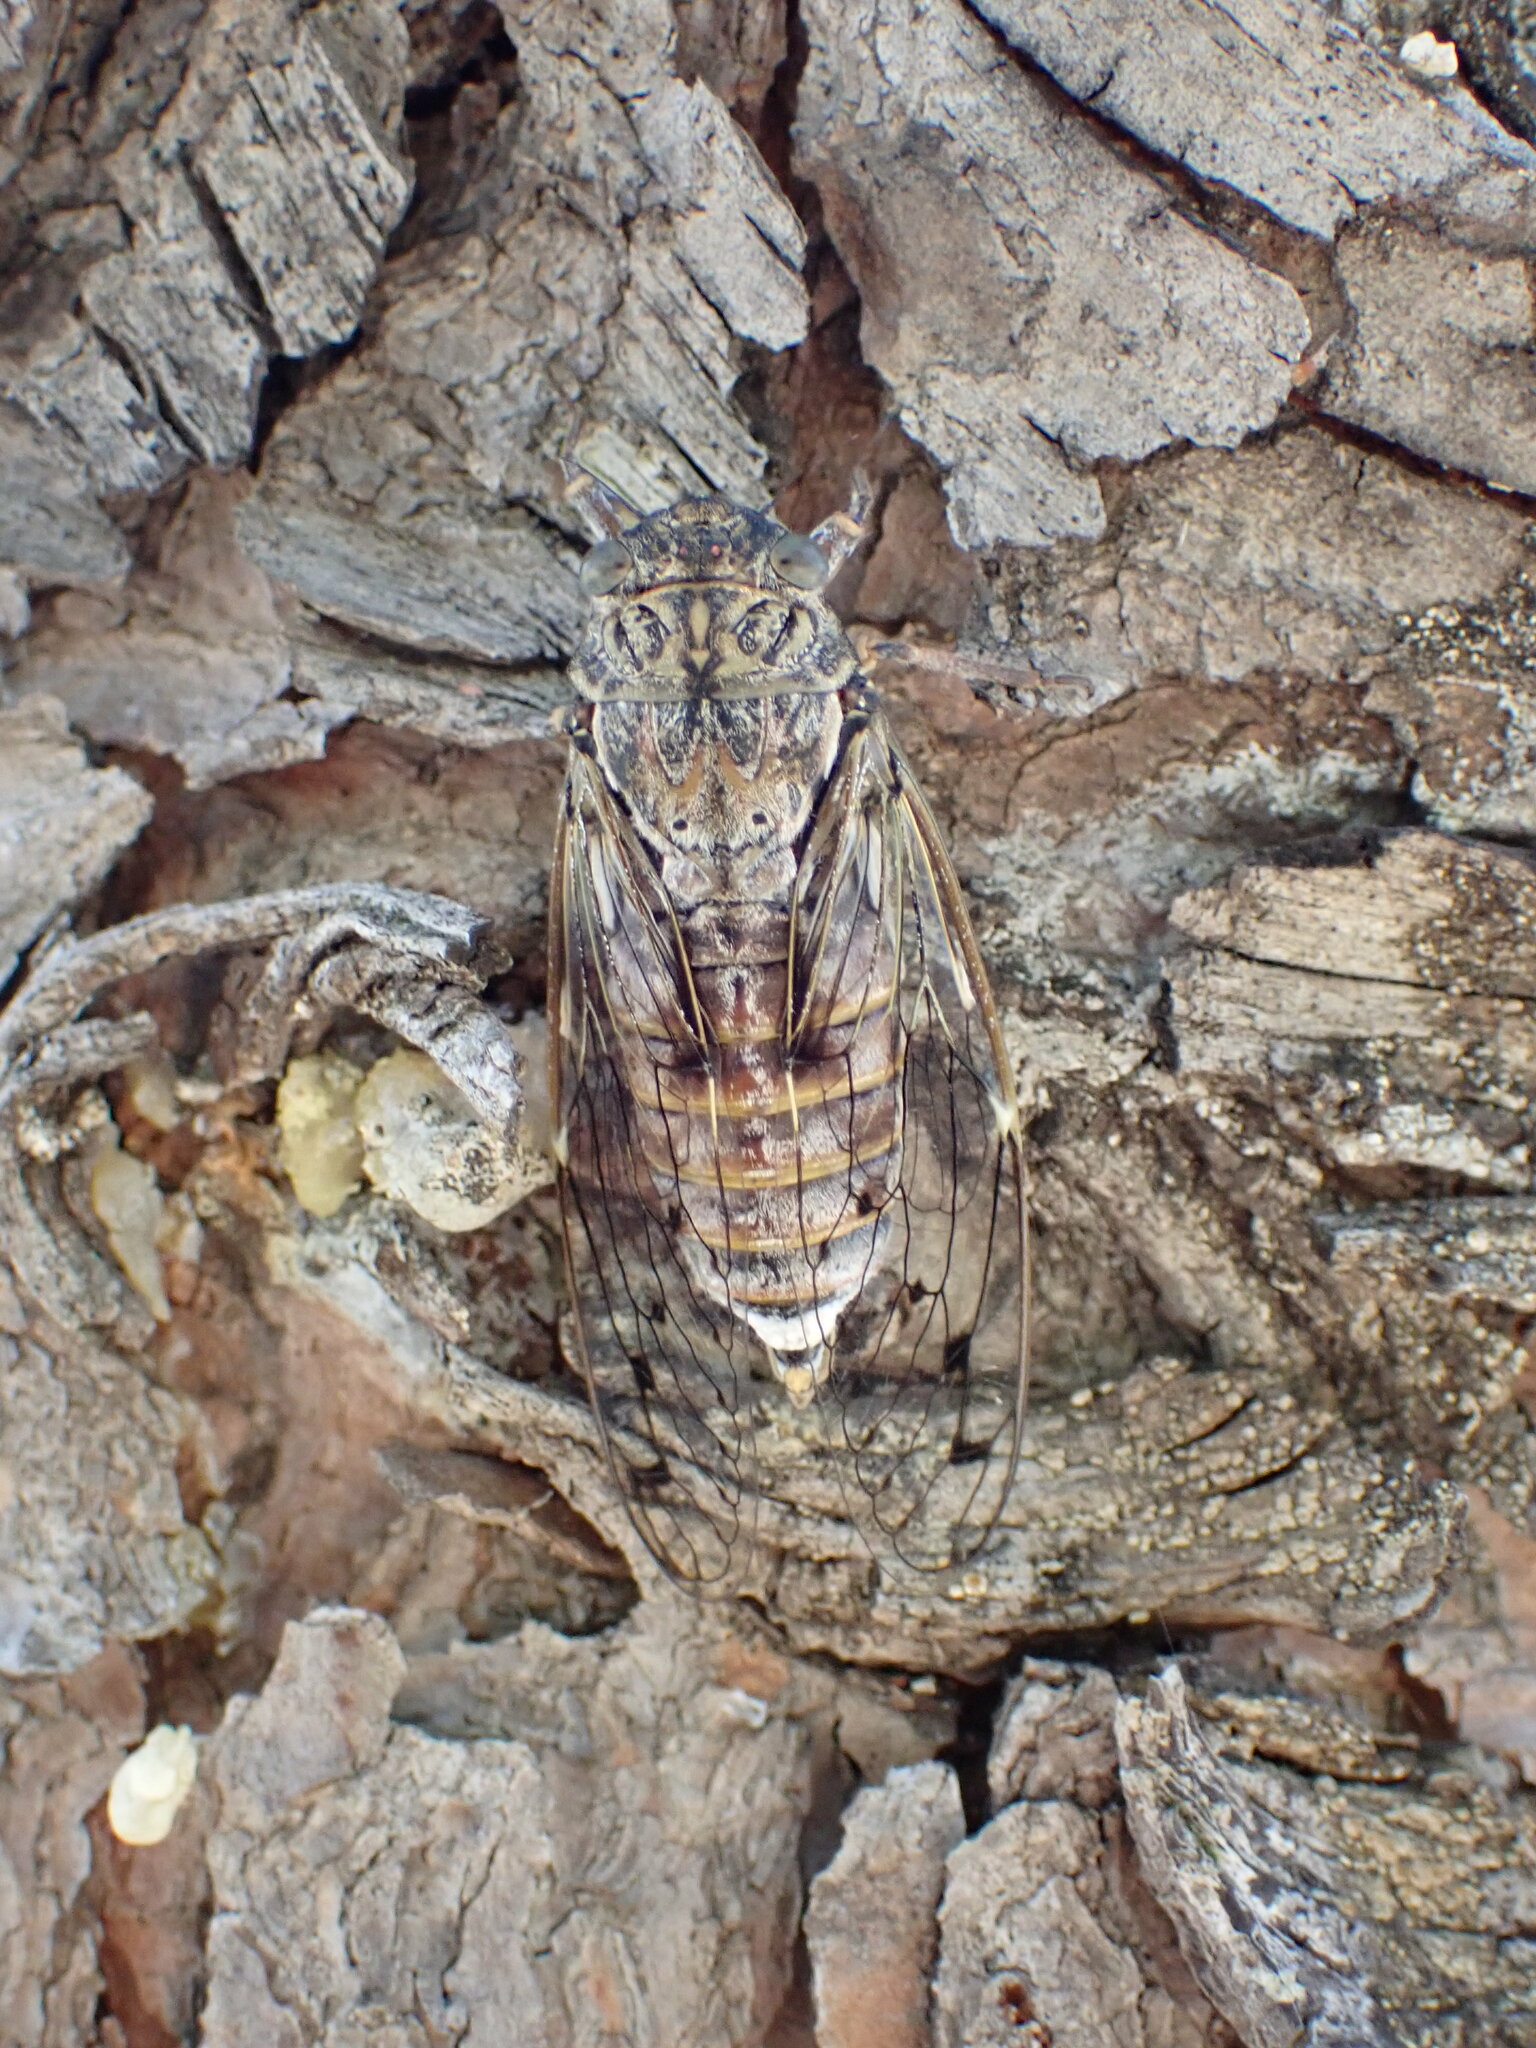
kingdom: Animalia
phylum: Arthropoda
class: Insecta
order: Hemiptera
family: Cicadidae
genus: Cicada
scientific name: Cicada orni
